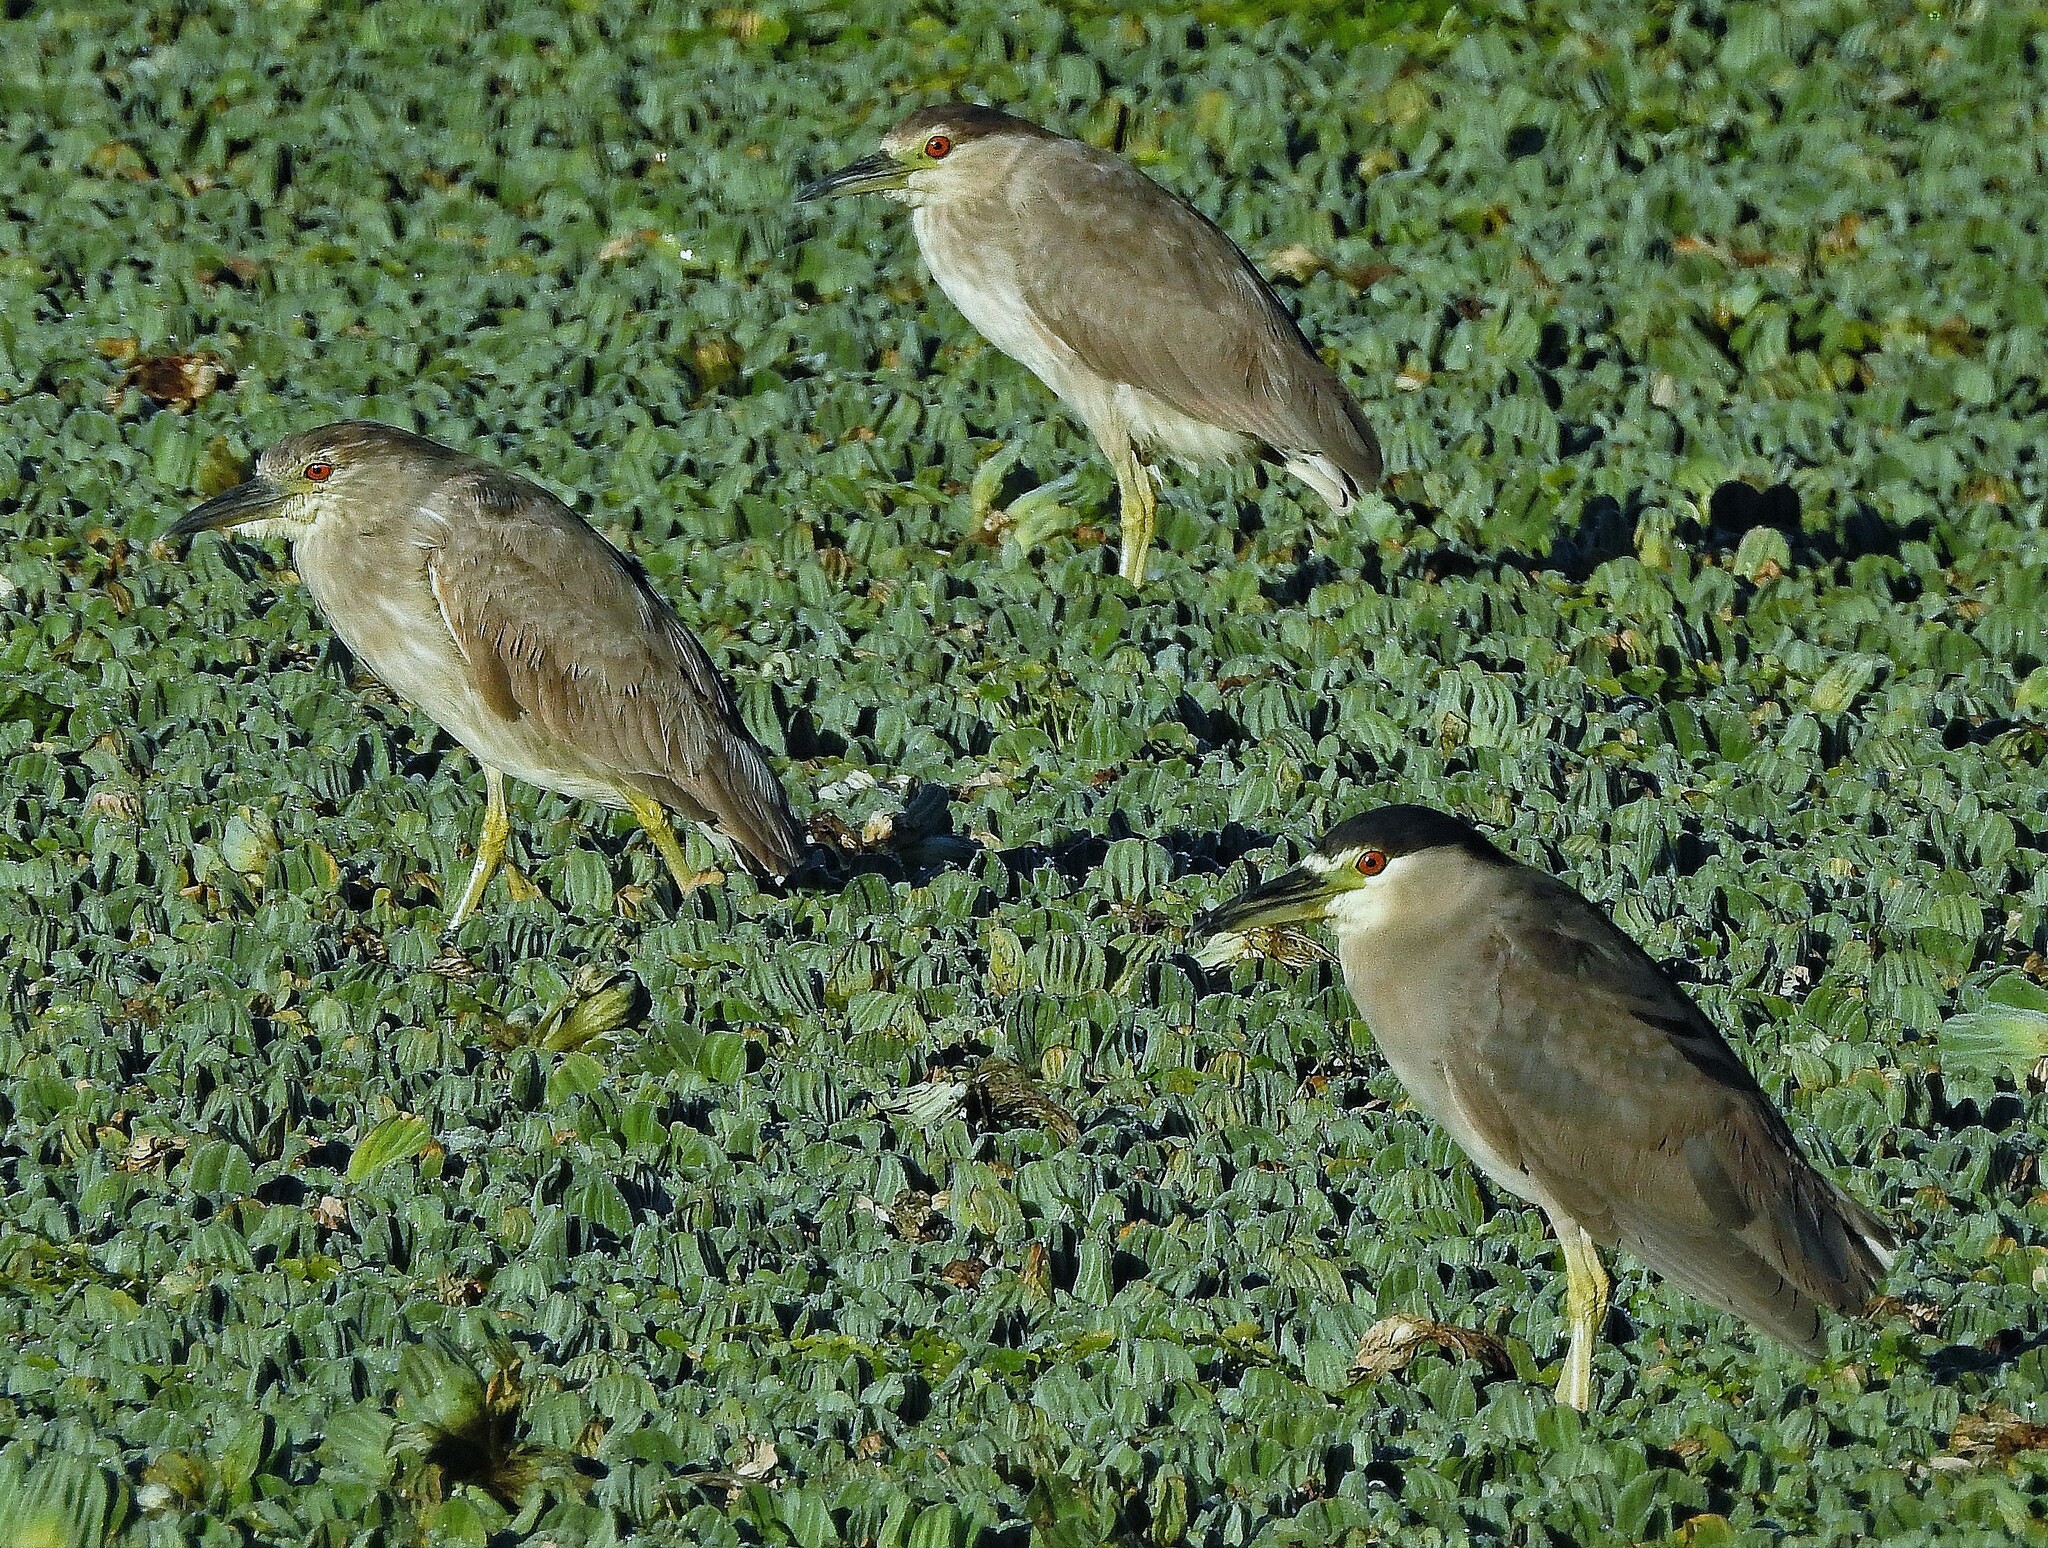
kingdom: Animalia
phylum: Chordata
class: Aves
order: Pelecaniformes
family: Ardeidae
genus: Nycticorax
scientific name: Nycticorax nycticorax
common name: Black-crowned night heron
